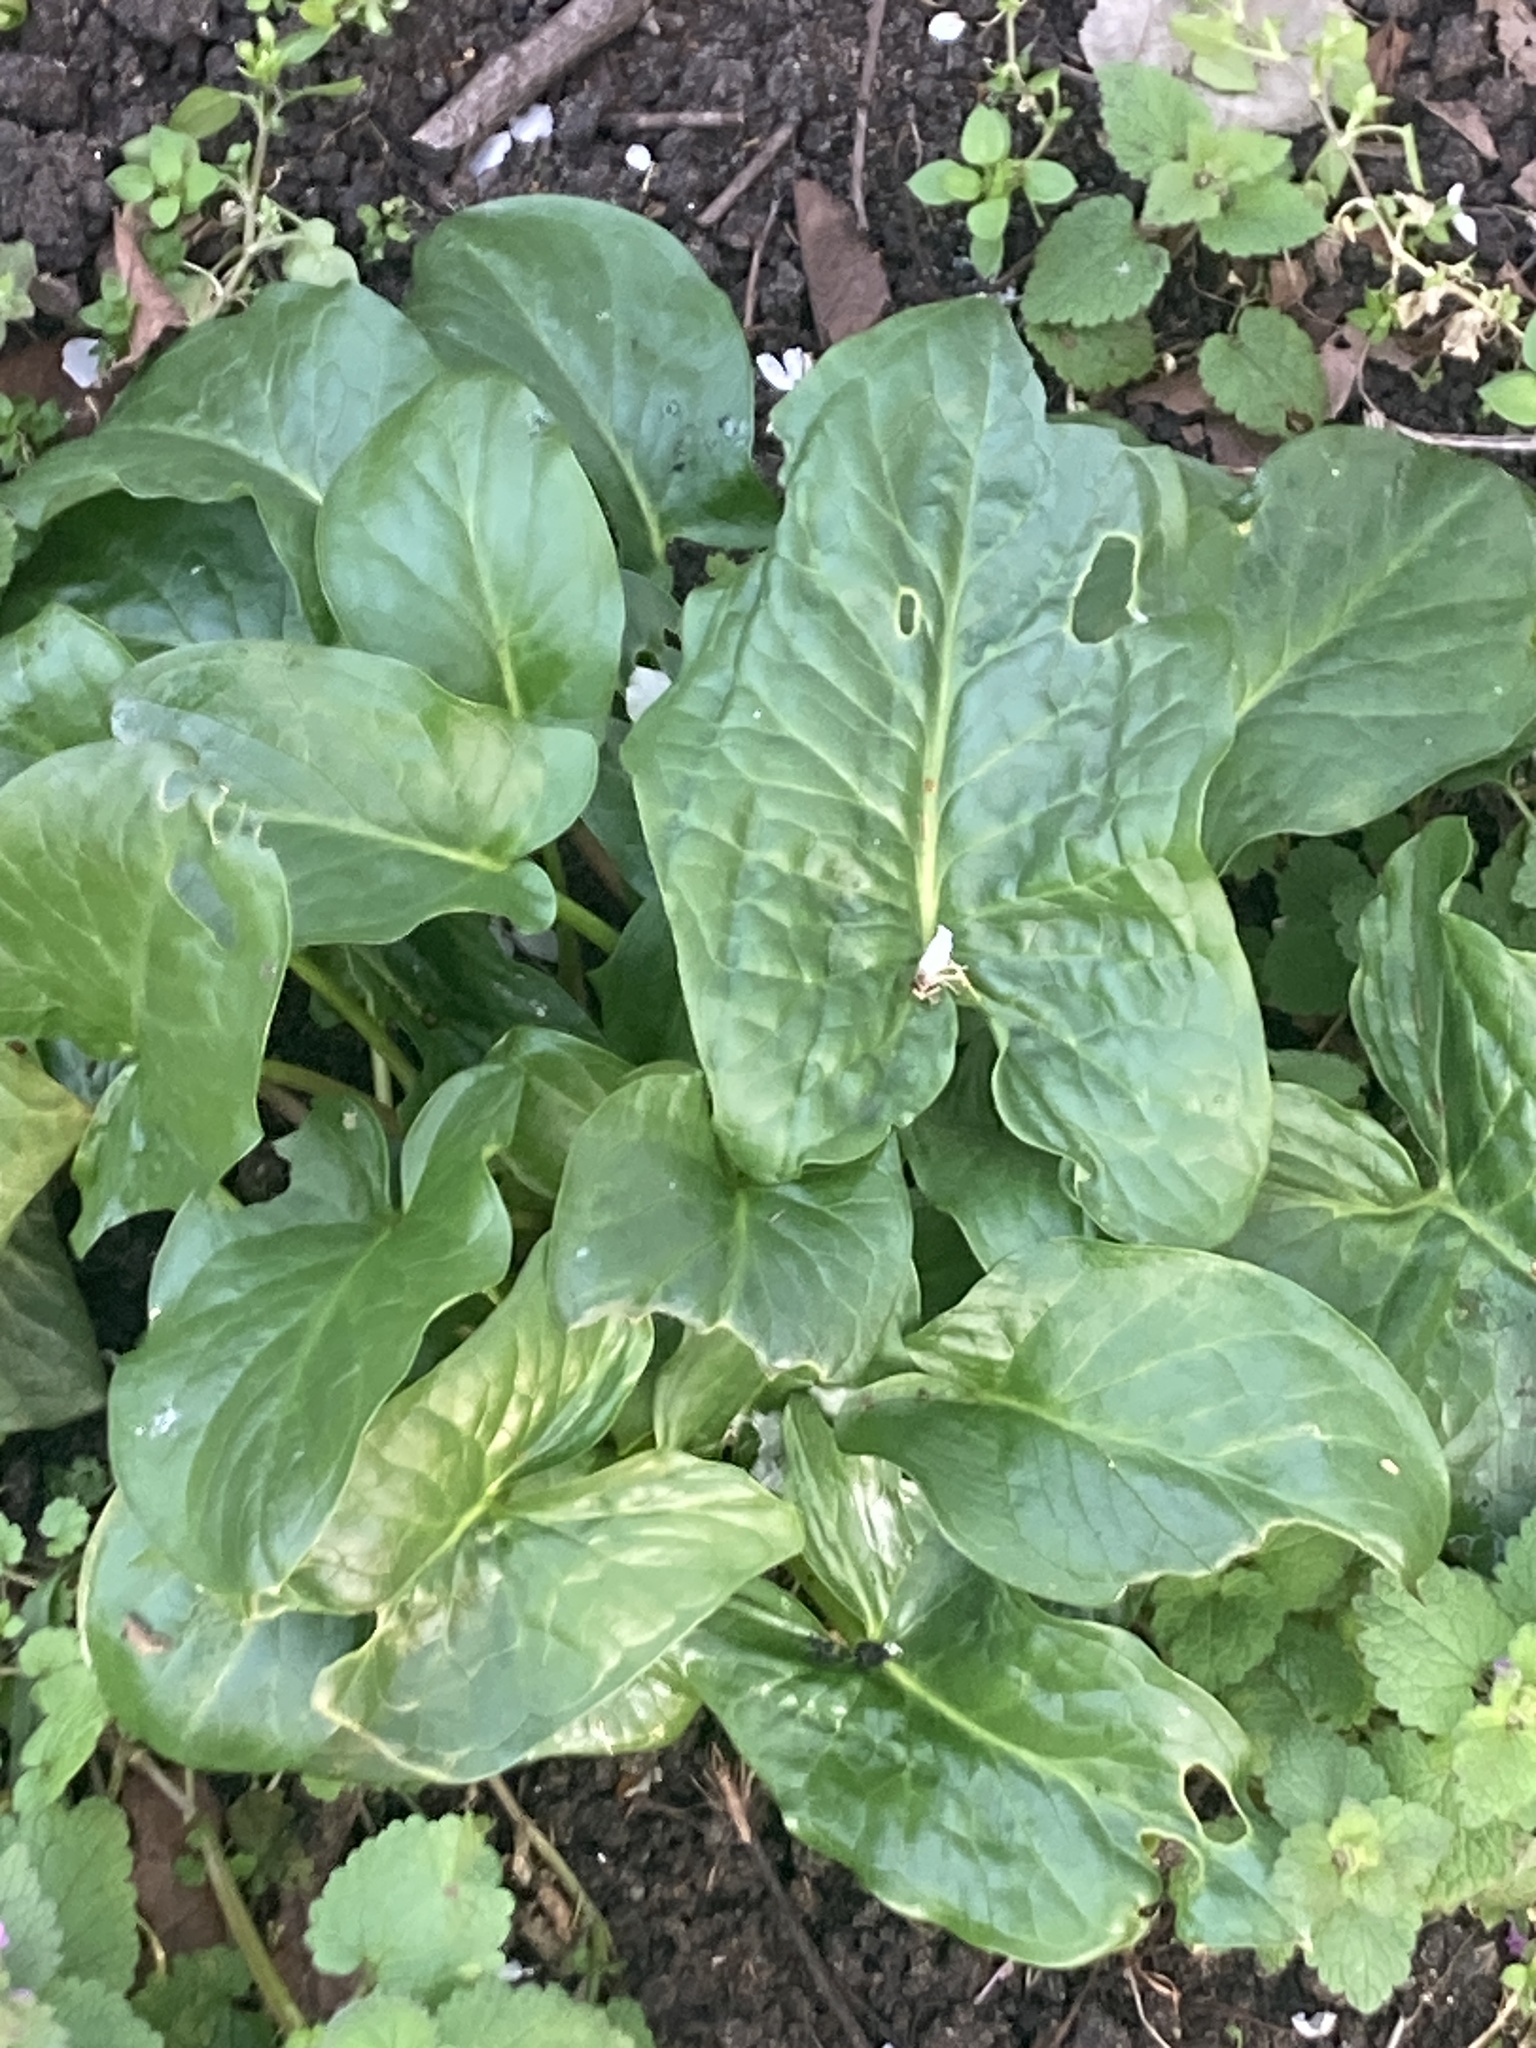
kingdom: Plantae
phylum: Tracheophyta
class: Liliopsida
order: Alismatales
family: Araceae
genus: Arum
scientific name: Arum maculatum
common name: Lords-and-ladies
